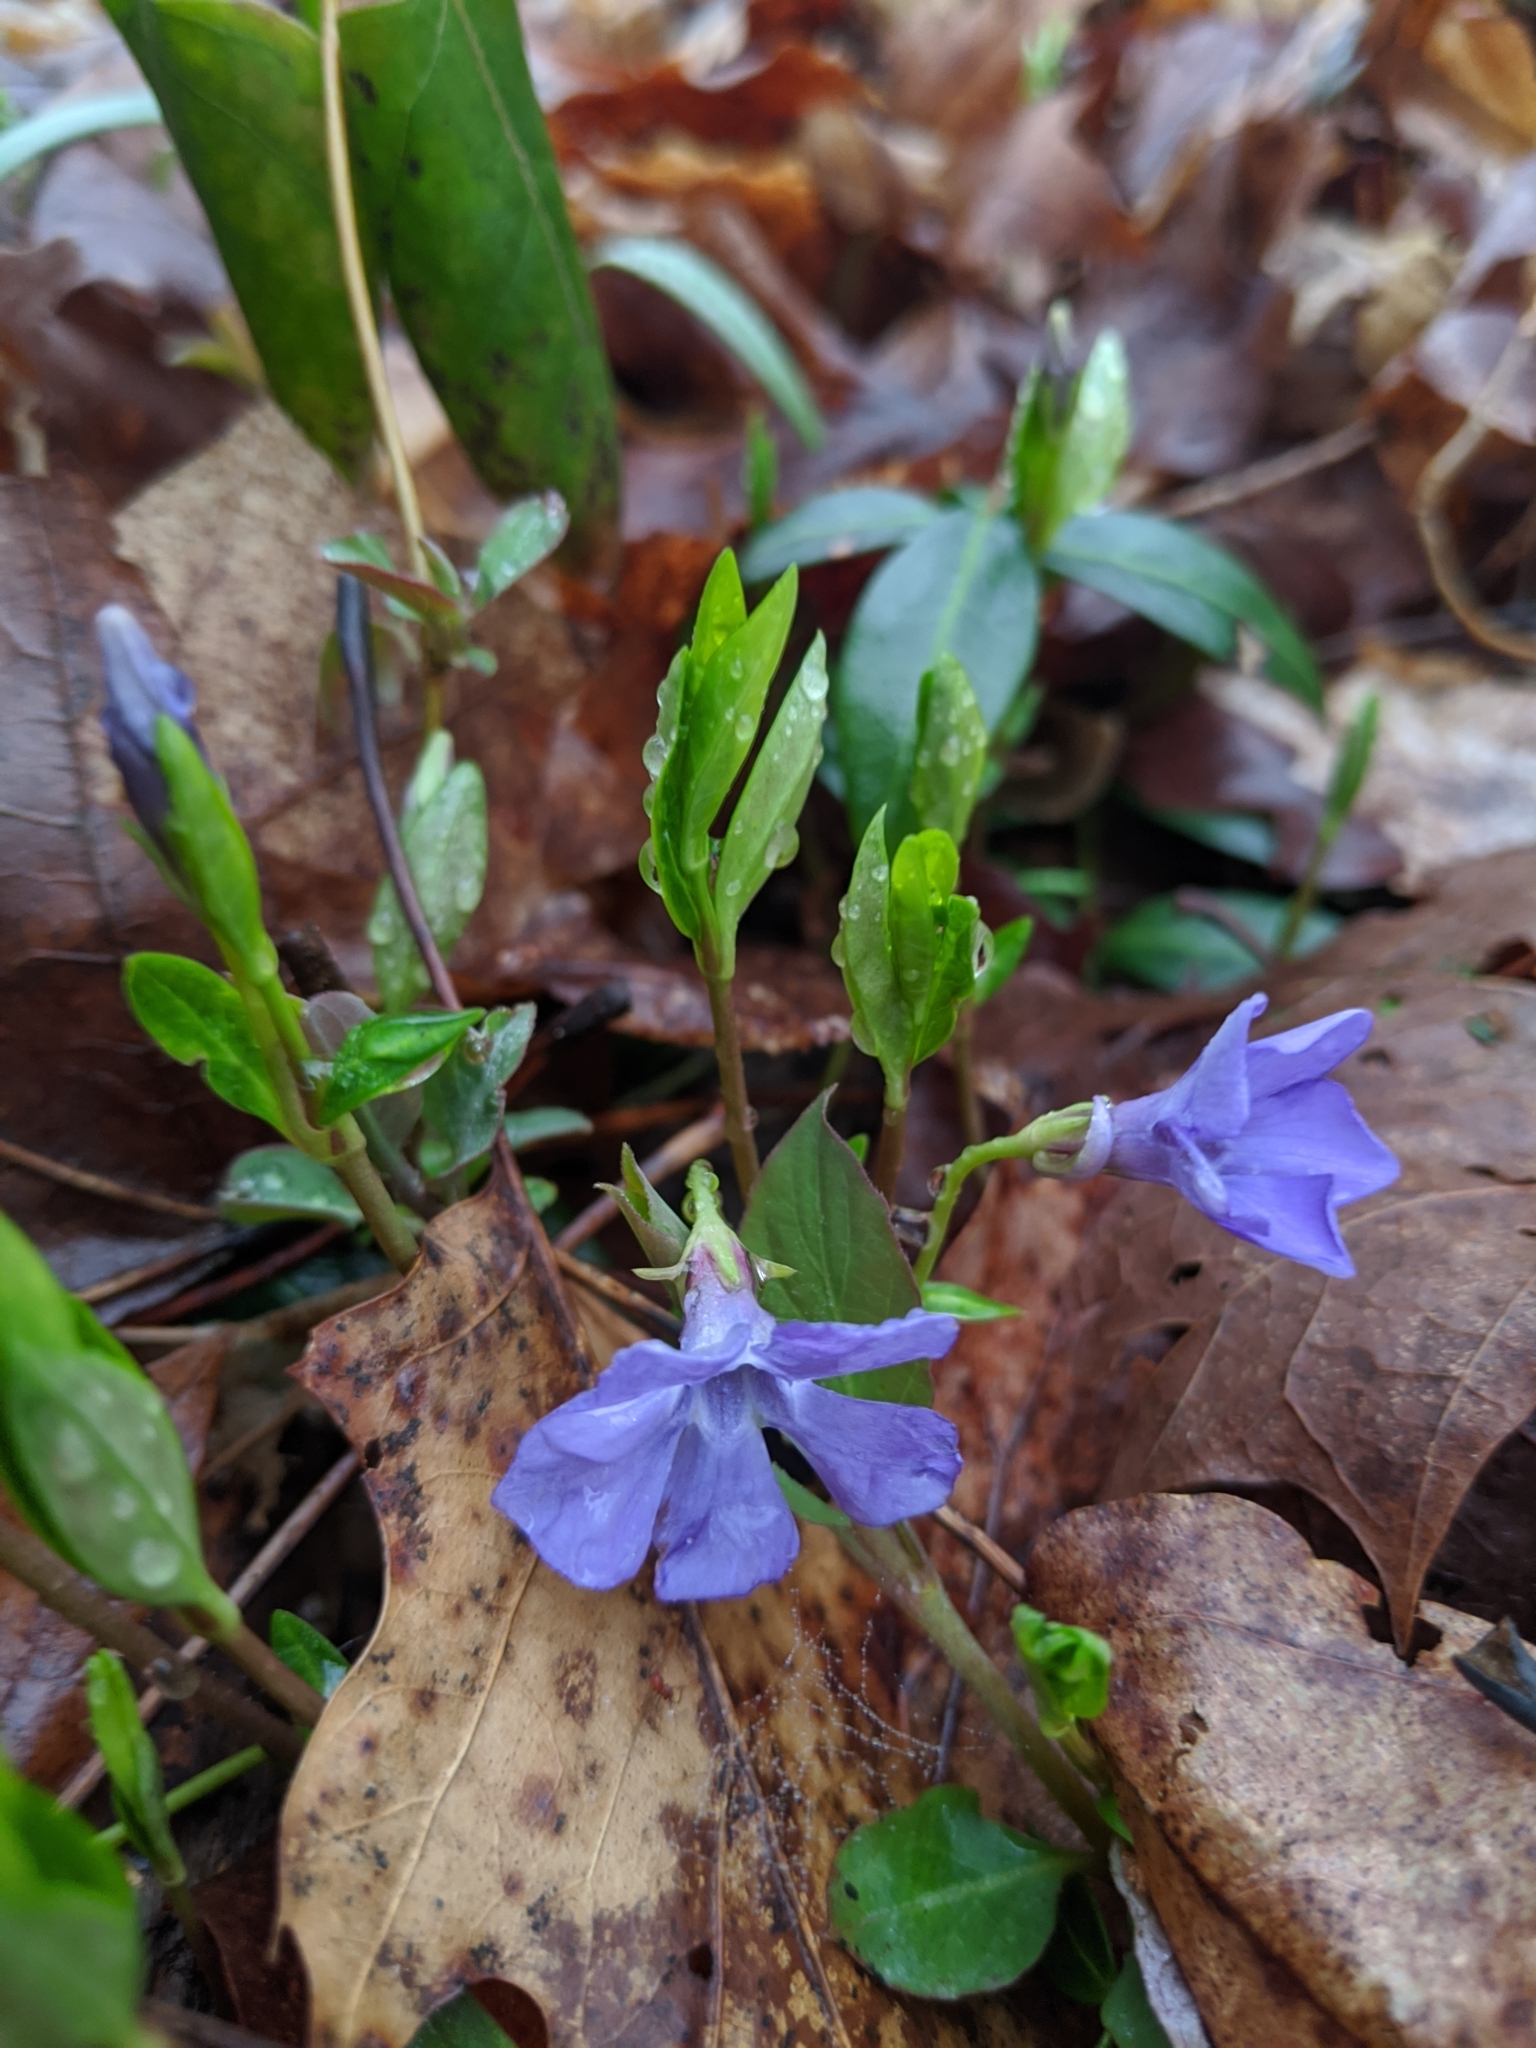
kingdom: Plantae
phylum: Tracheophyta
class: Magnoliopsida
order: Gentianales
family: Apocynaceae
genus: Vinca
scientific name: Vinca minor
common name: Lesser periwinkle
